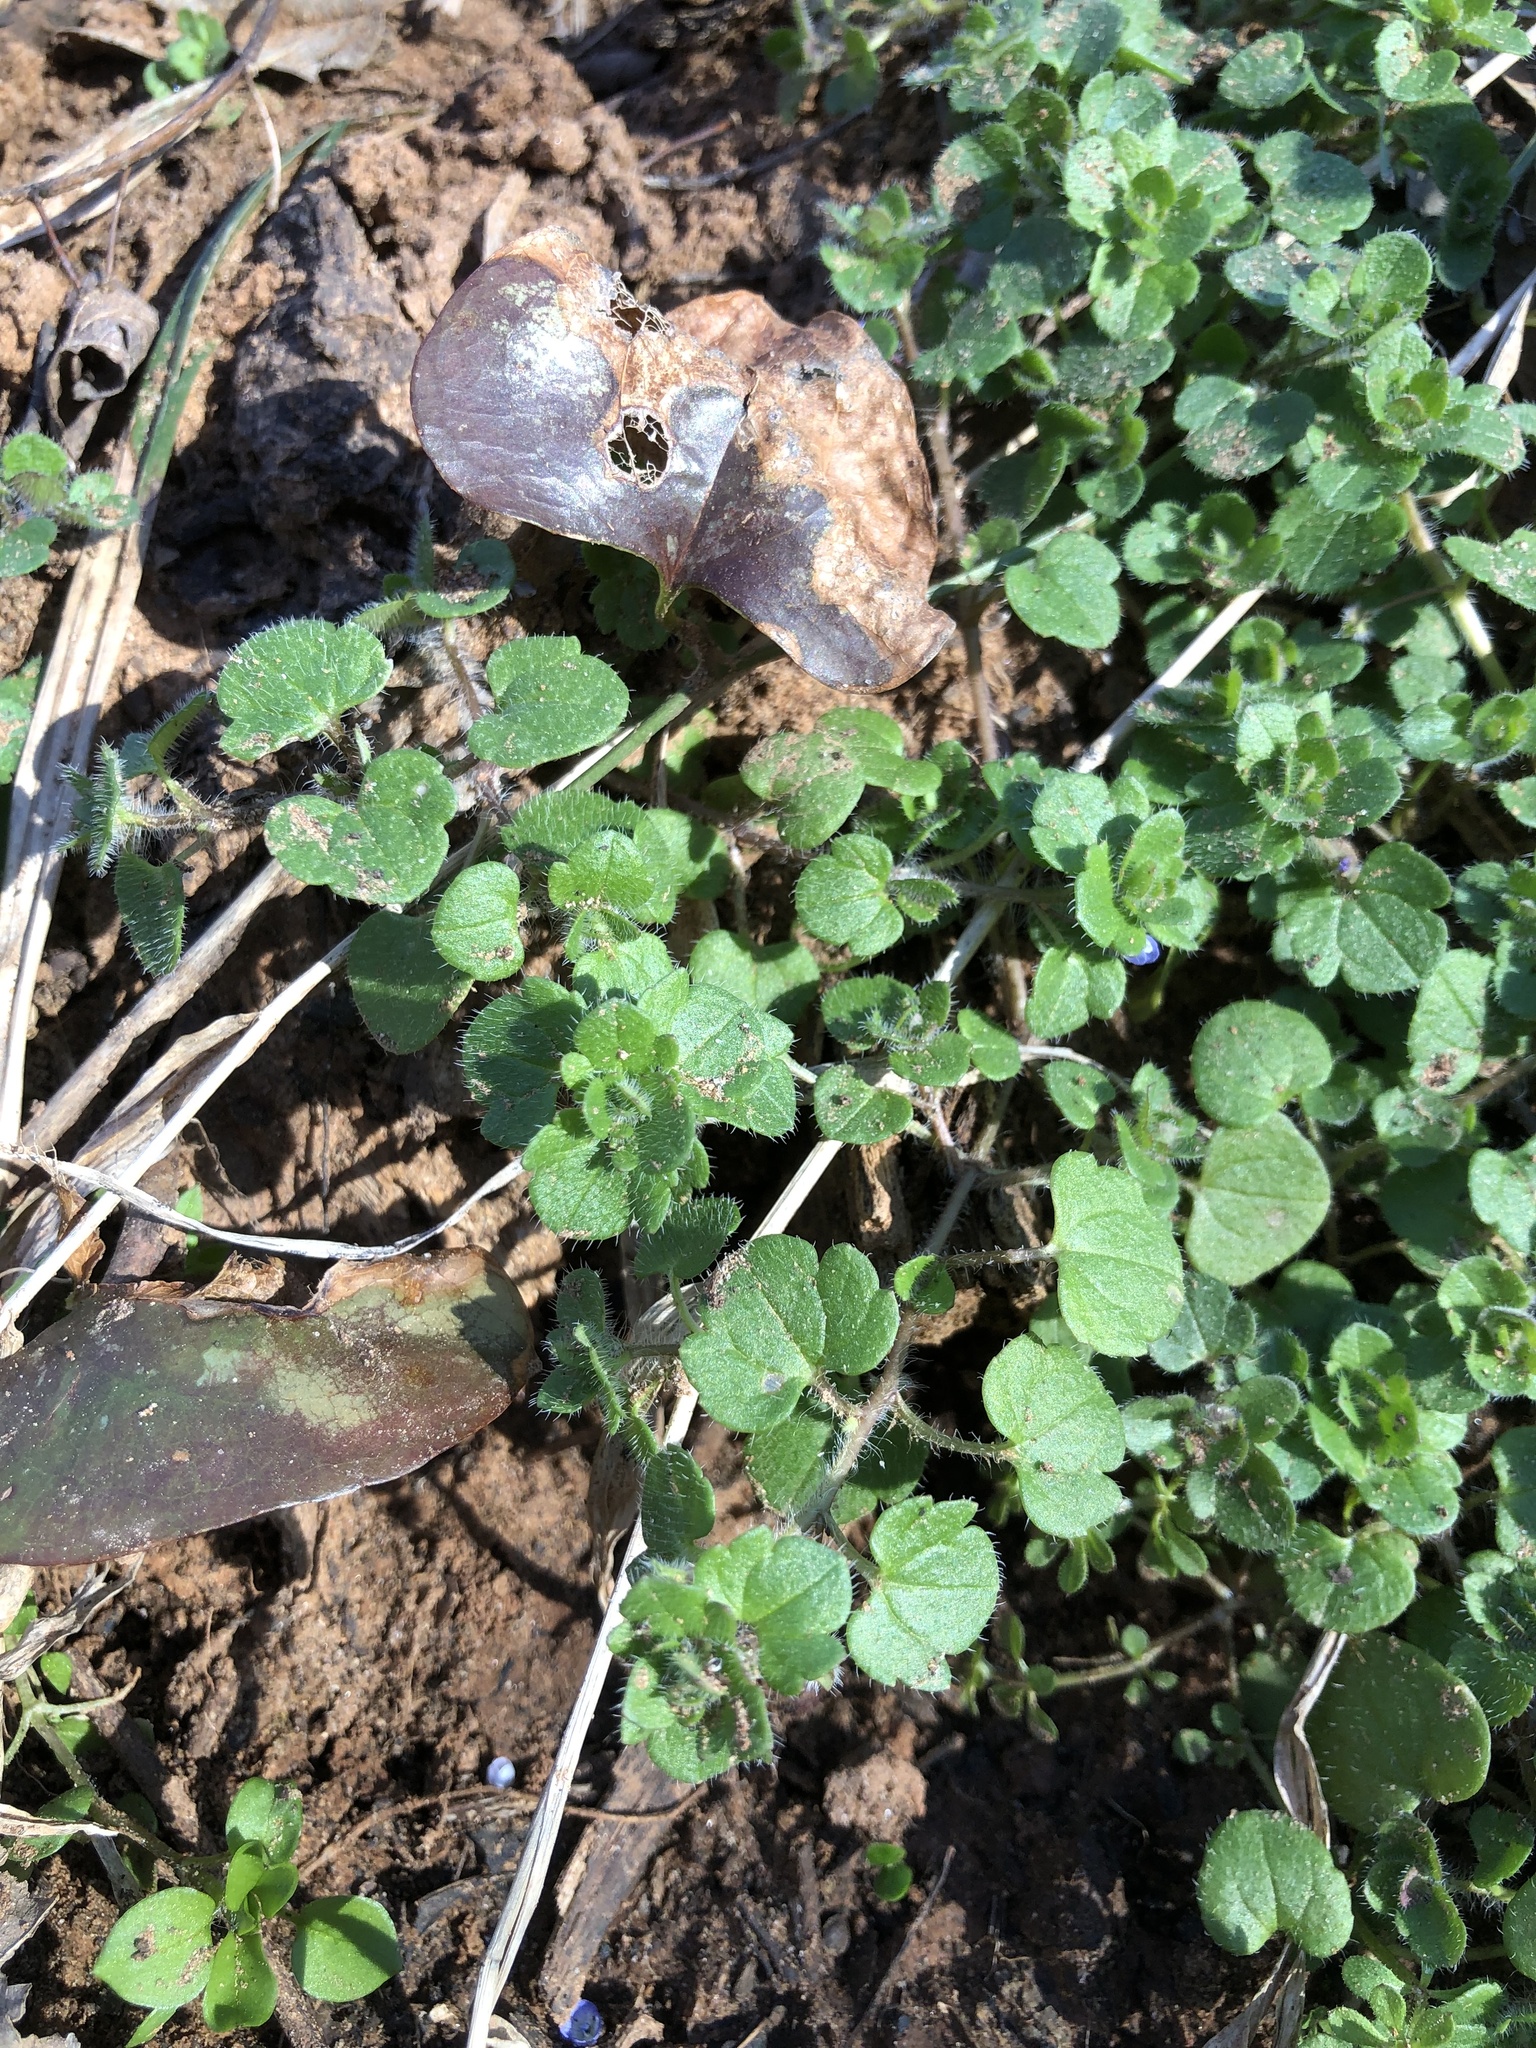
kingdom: Plantae
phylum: Tracheophyta
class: Magnoliopsida
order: Lamiales
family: Plantaginaceae
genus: Veronica
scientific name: Veronica hederifolia
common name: Ivy-leaved speedwell
